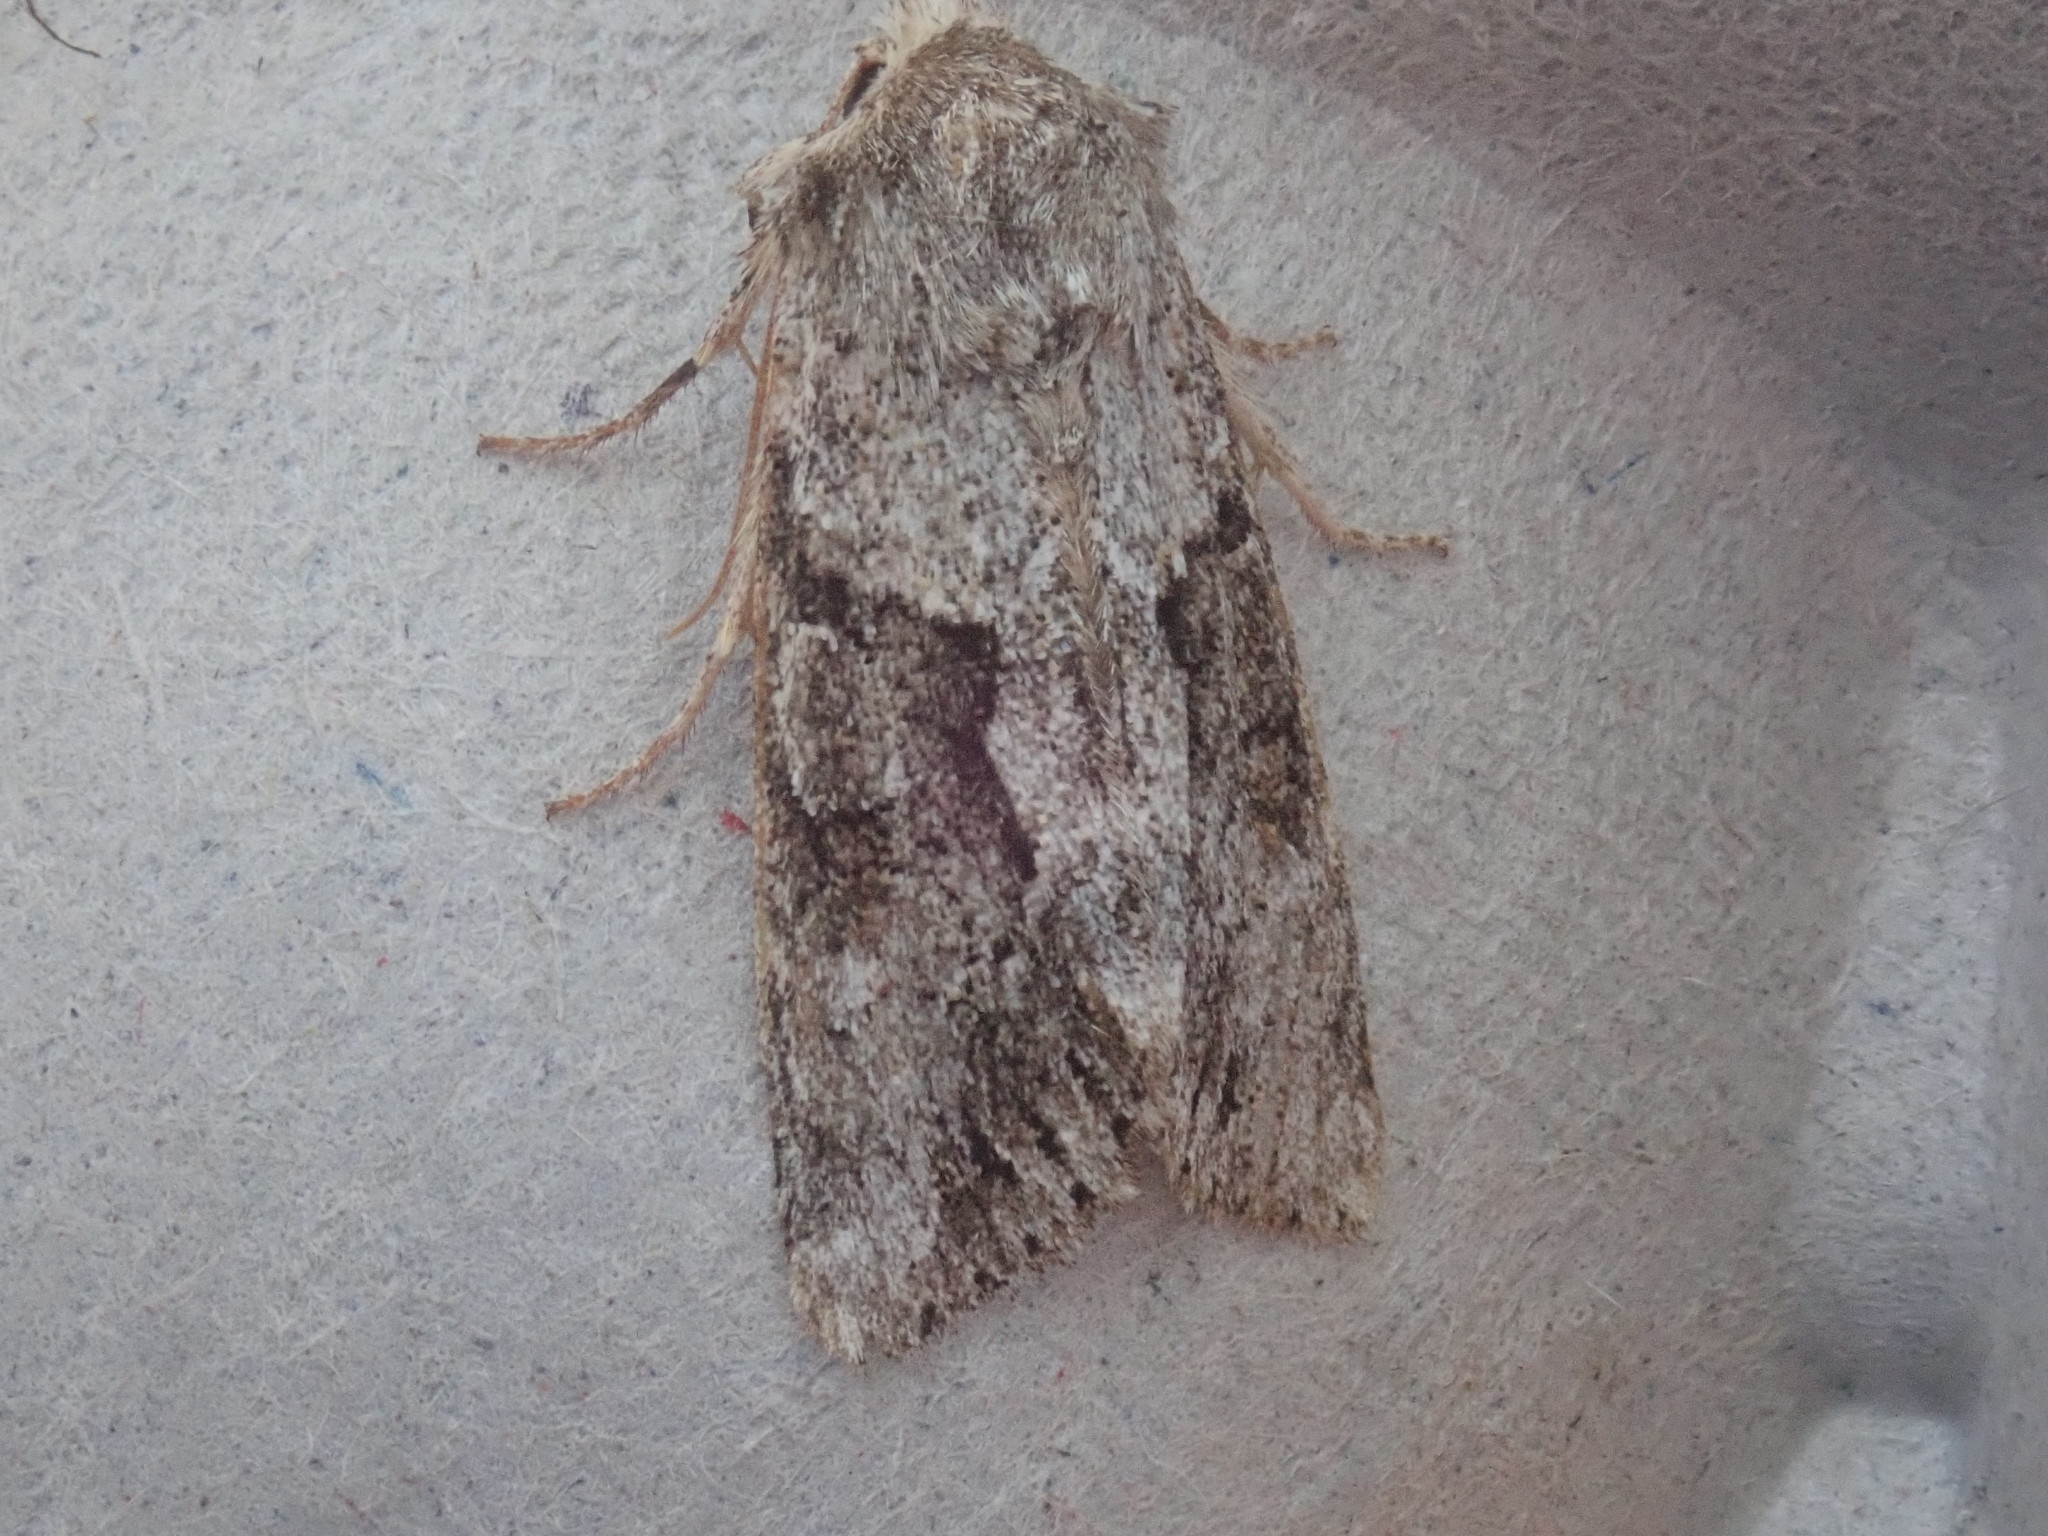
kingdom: Animalia
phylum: Arthropoda
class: Insecta
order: Lepidoptera
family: Noctuidae
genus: Achatia
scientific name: Achatia distincta
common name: Distinct quaker
